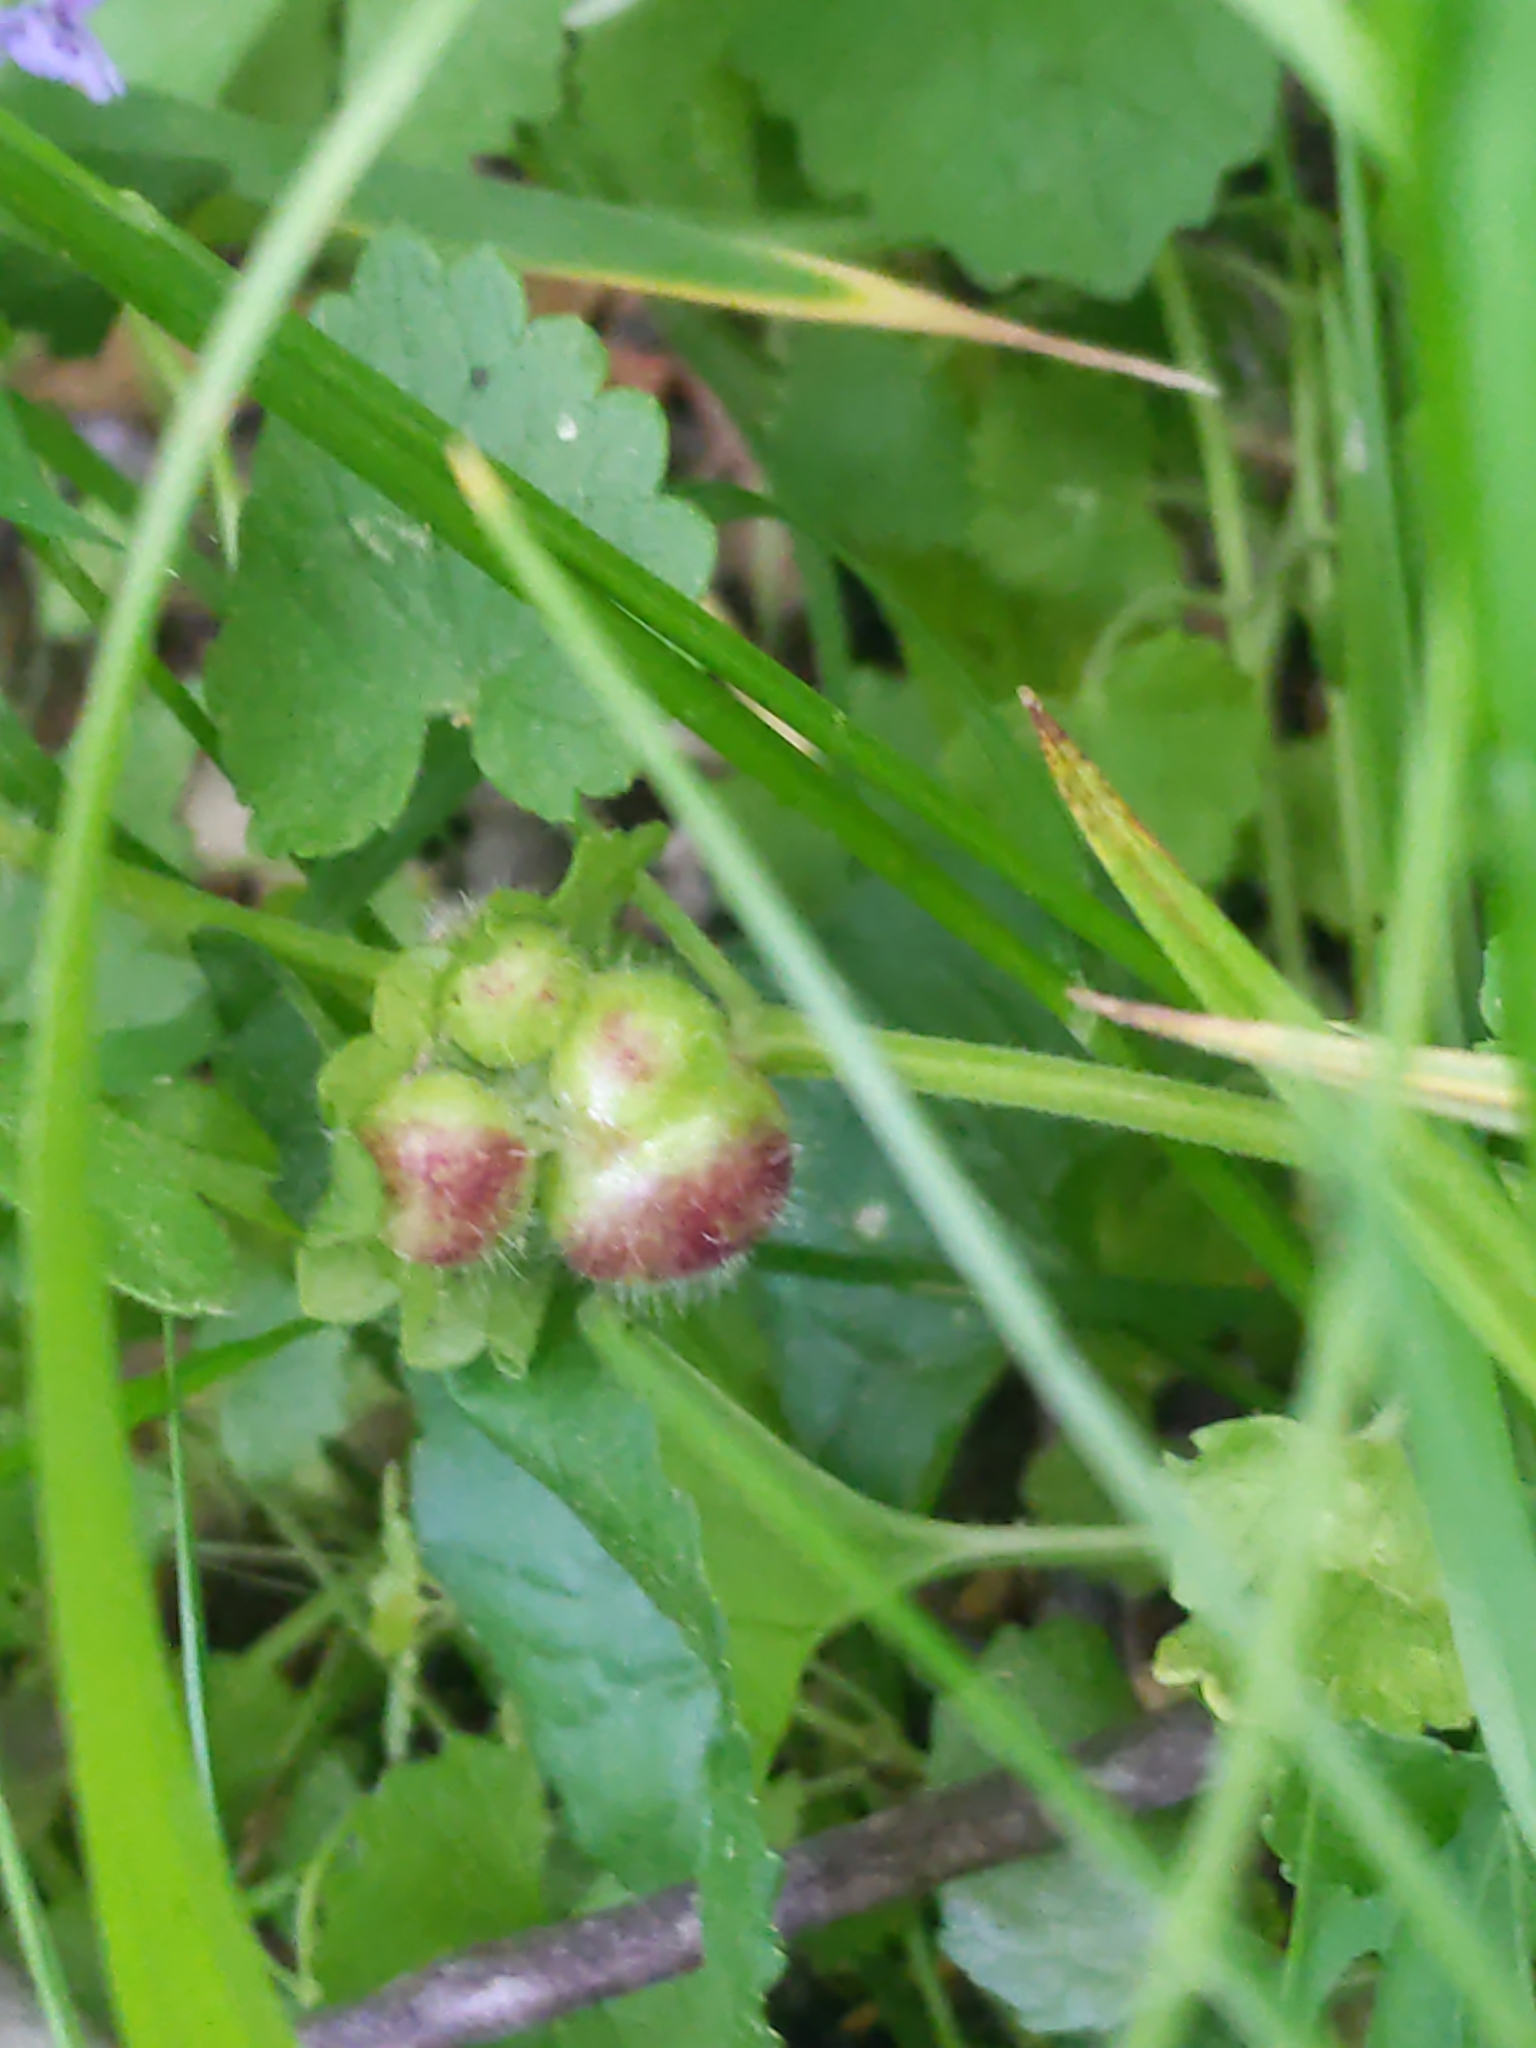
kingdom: Animalia
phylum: Arthropoda
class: Insecta
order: Hymenoptera
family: Cynipidae
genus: Liposthenes
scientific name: Liposthenes glechomae
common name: Gall wasp
